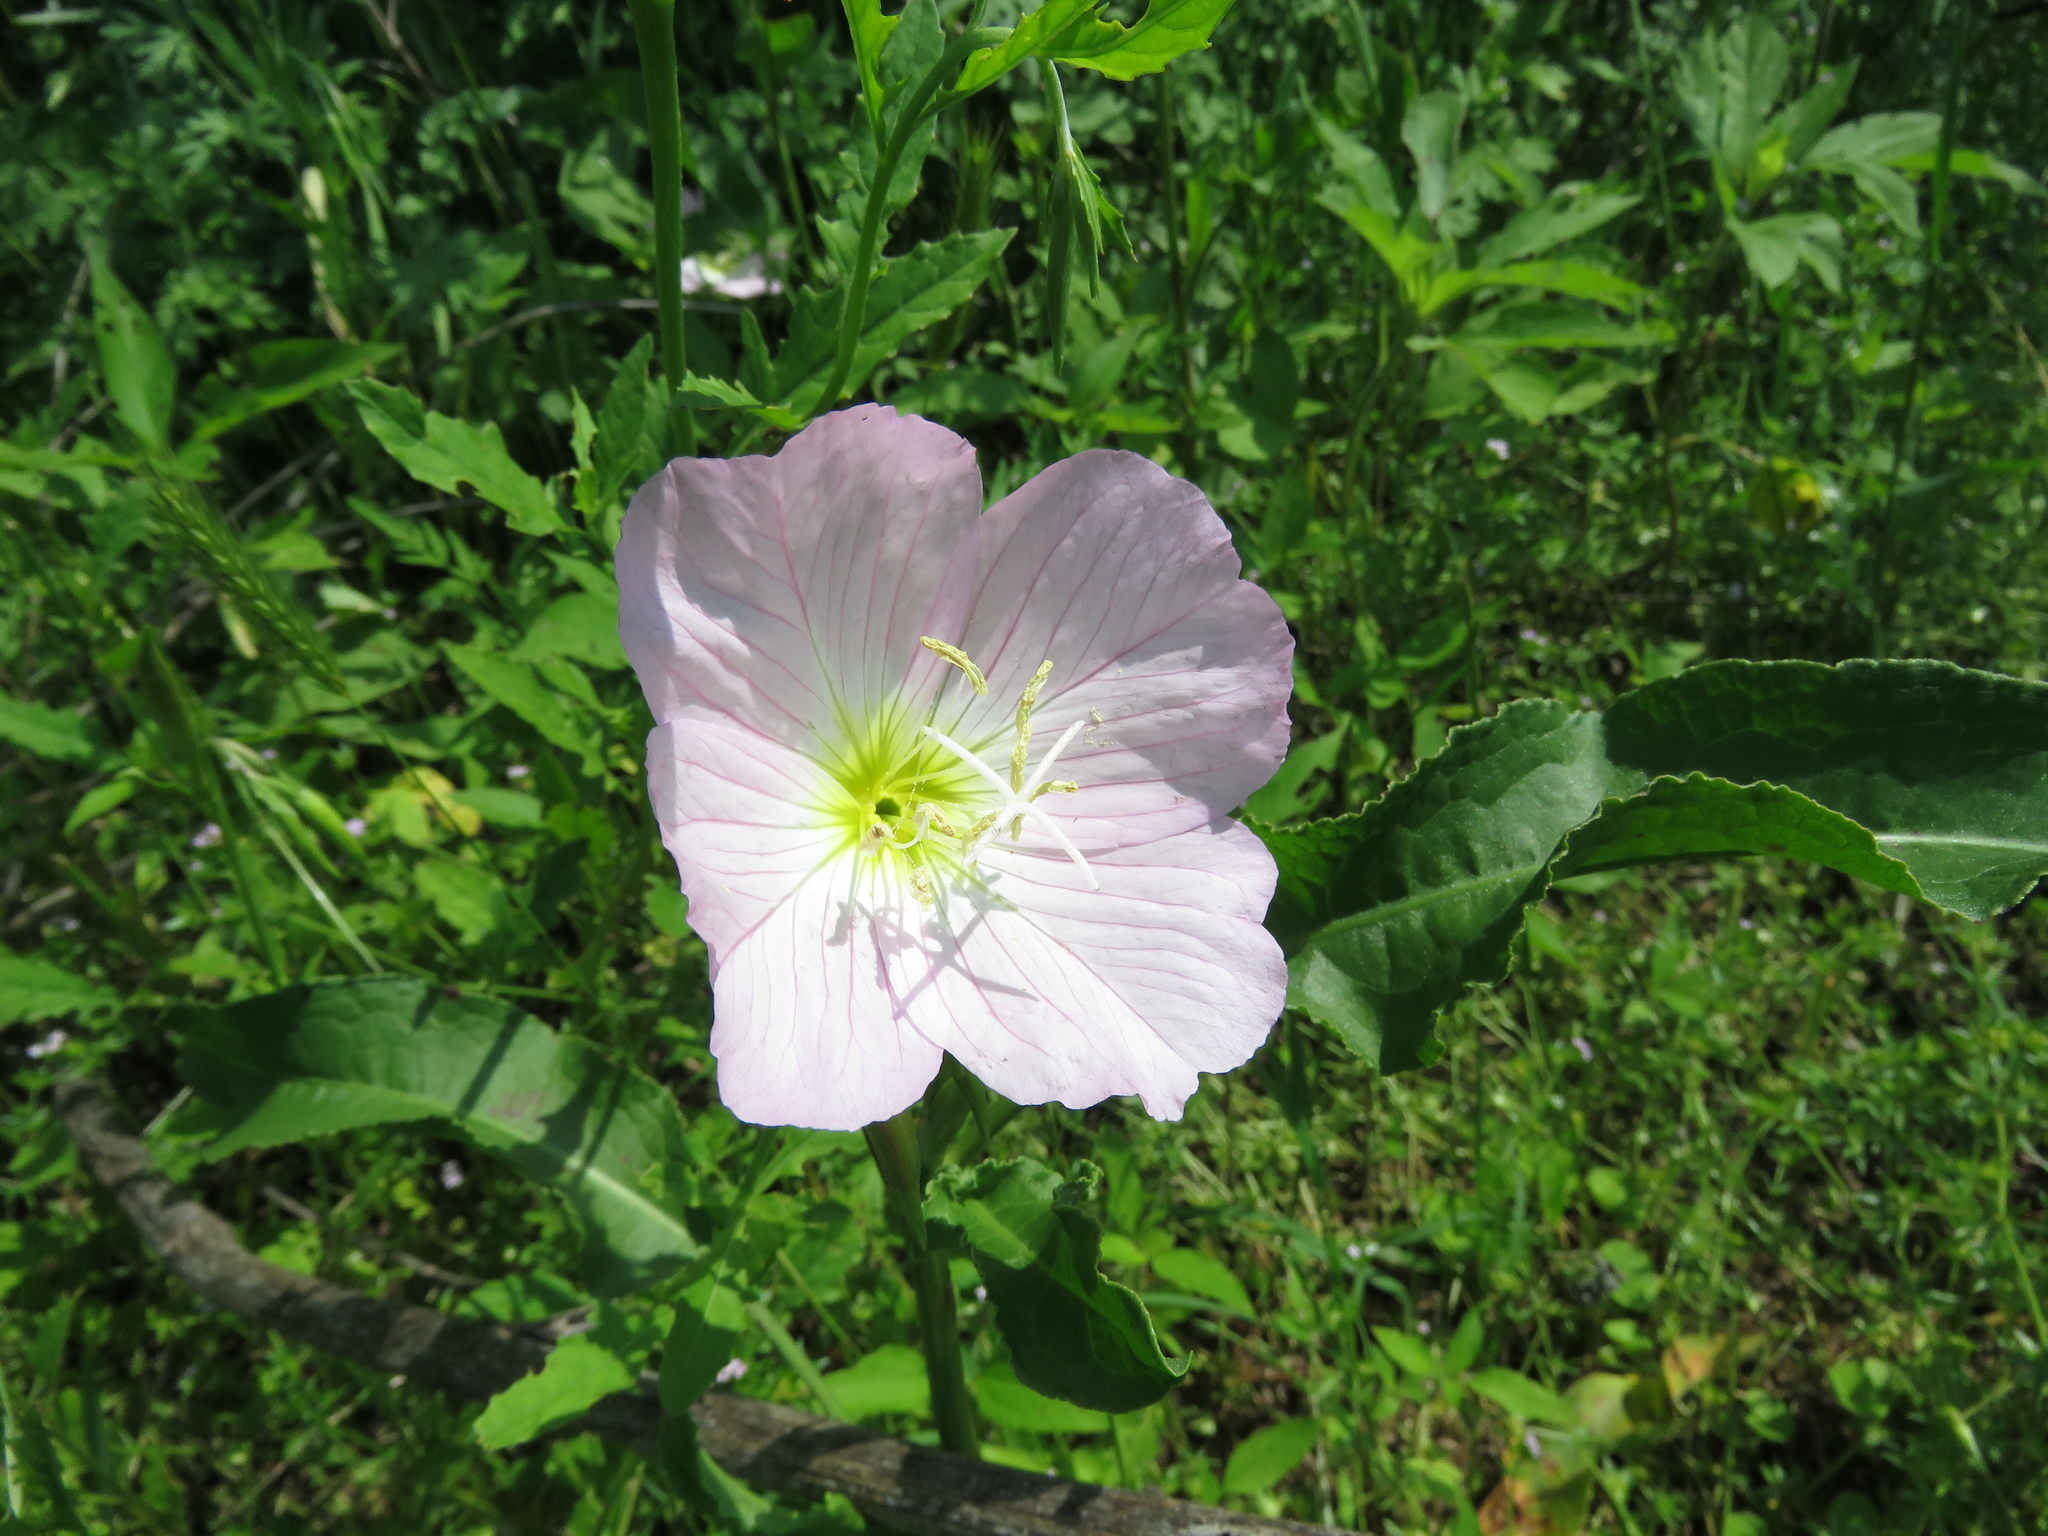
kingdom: Plantae
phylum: Tracheophyta
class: Magnoliopsida
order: Myrtales
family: Onagraceae
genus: Oenothera
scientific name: Oenothera speciosa
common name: White evening-primrose
